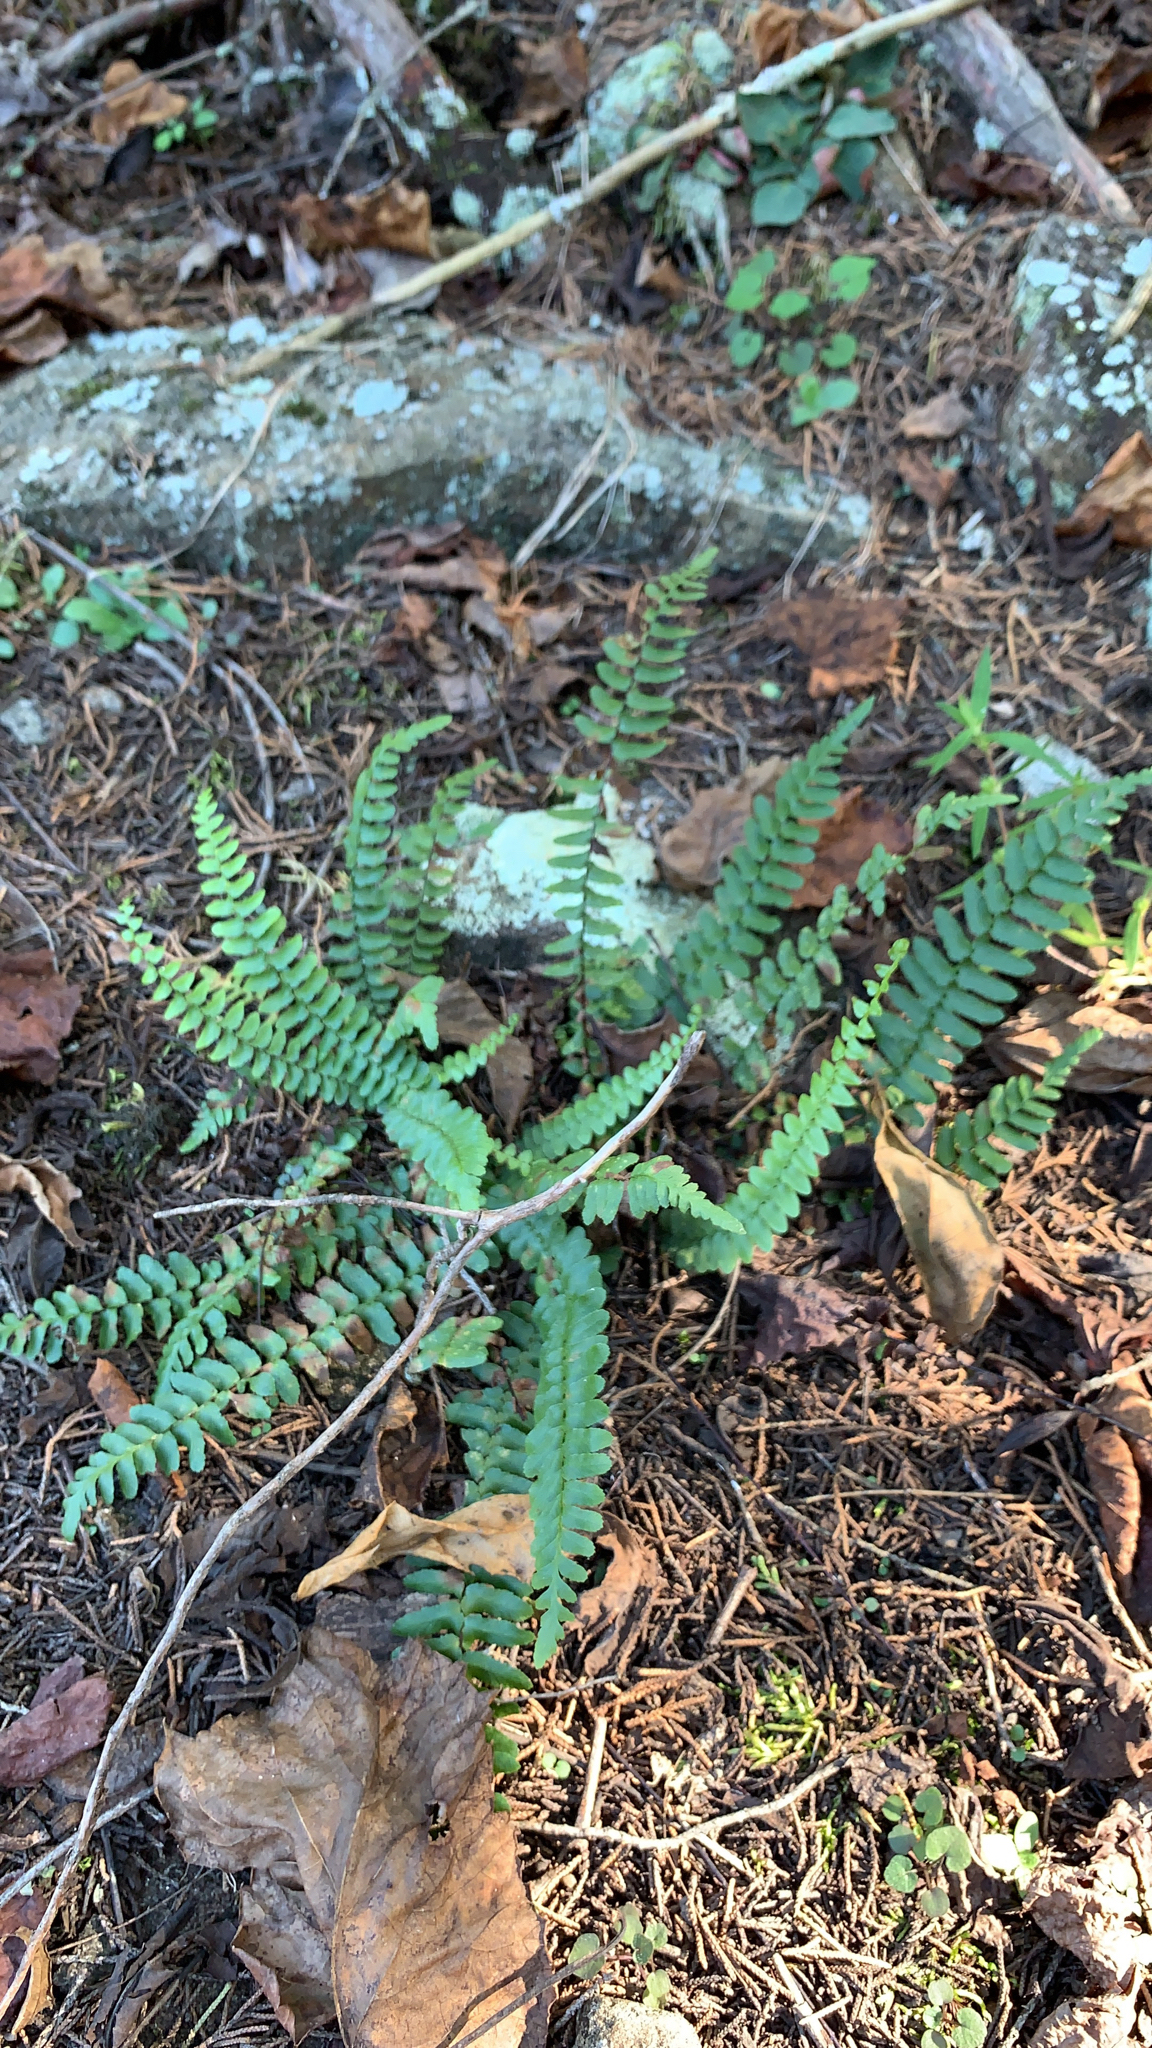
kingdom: Plantae
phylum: Tracheophyta
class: Polypodiopsida
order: Polypodiales
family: Aspleniaceae
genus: Asplenium
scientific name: Asplenium platyneuron
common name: Ebony spleenwort
